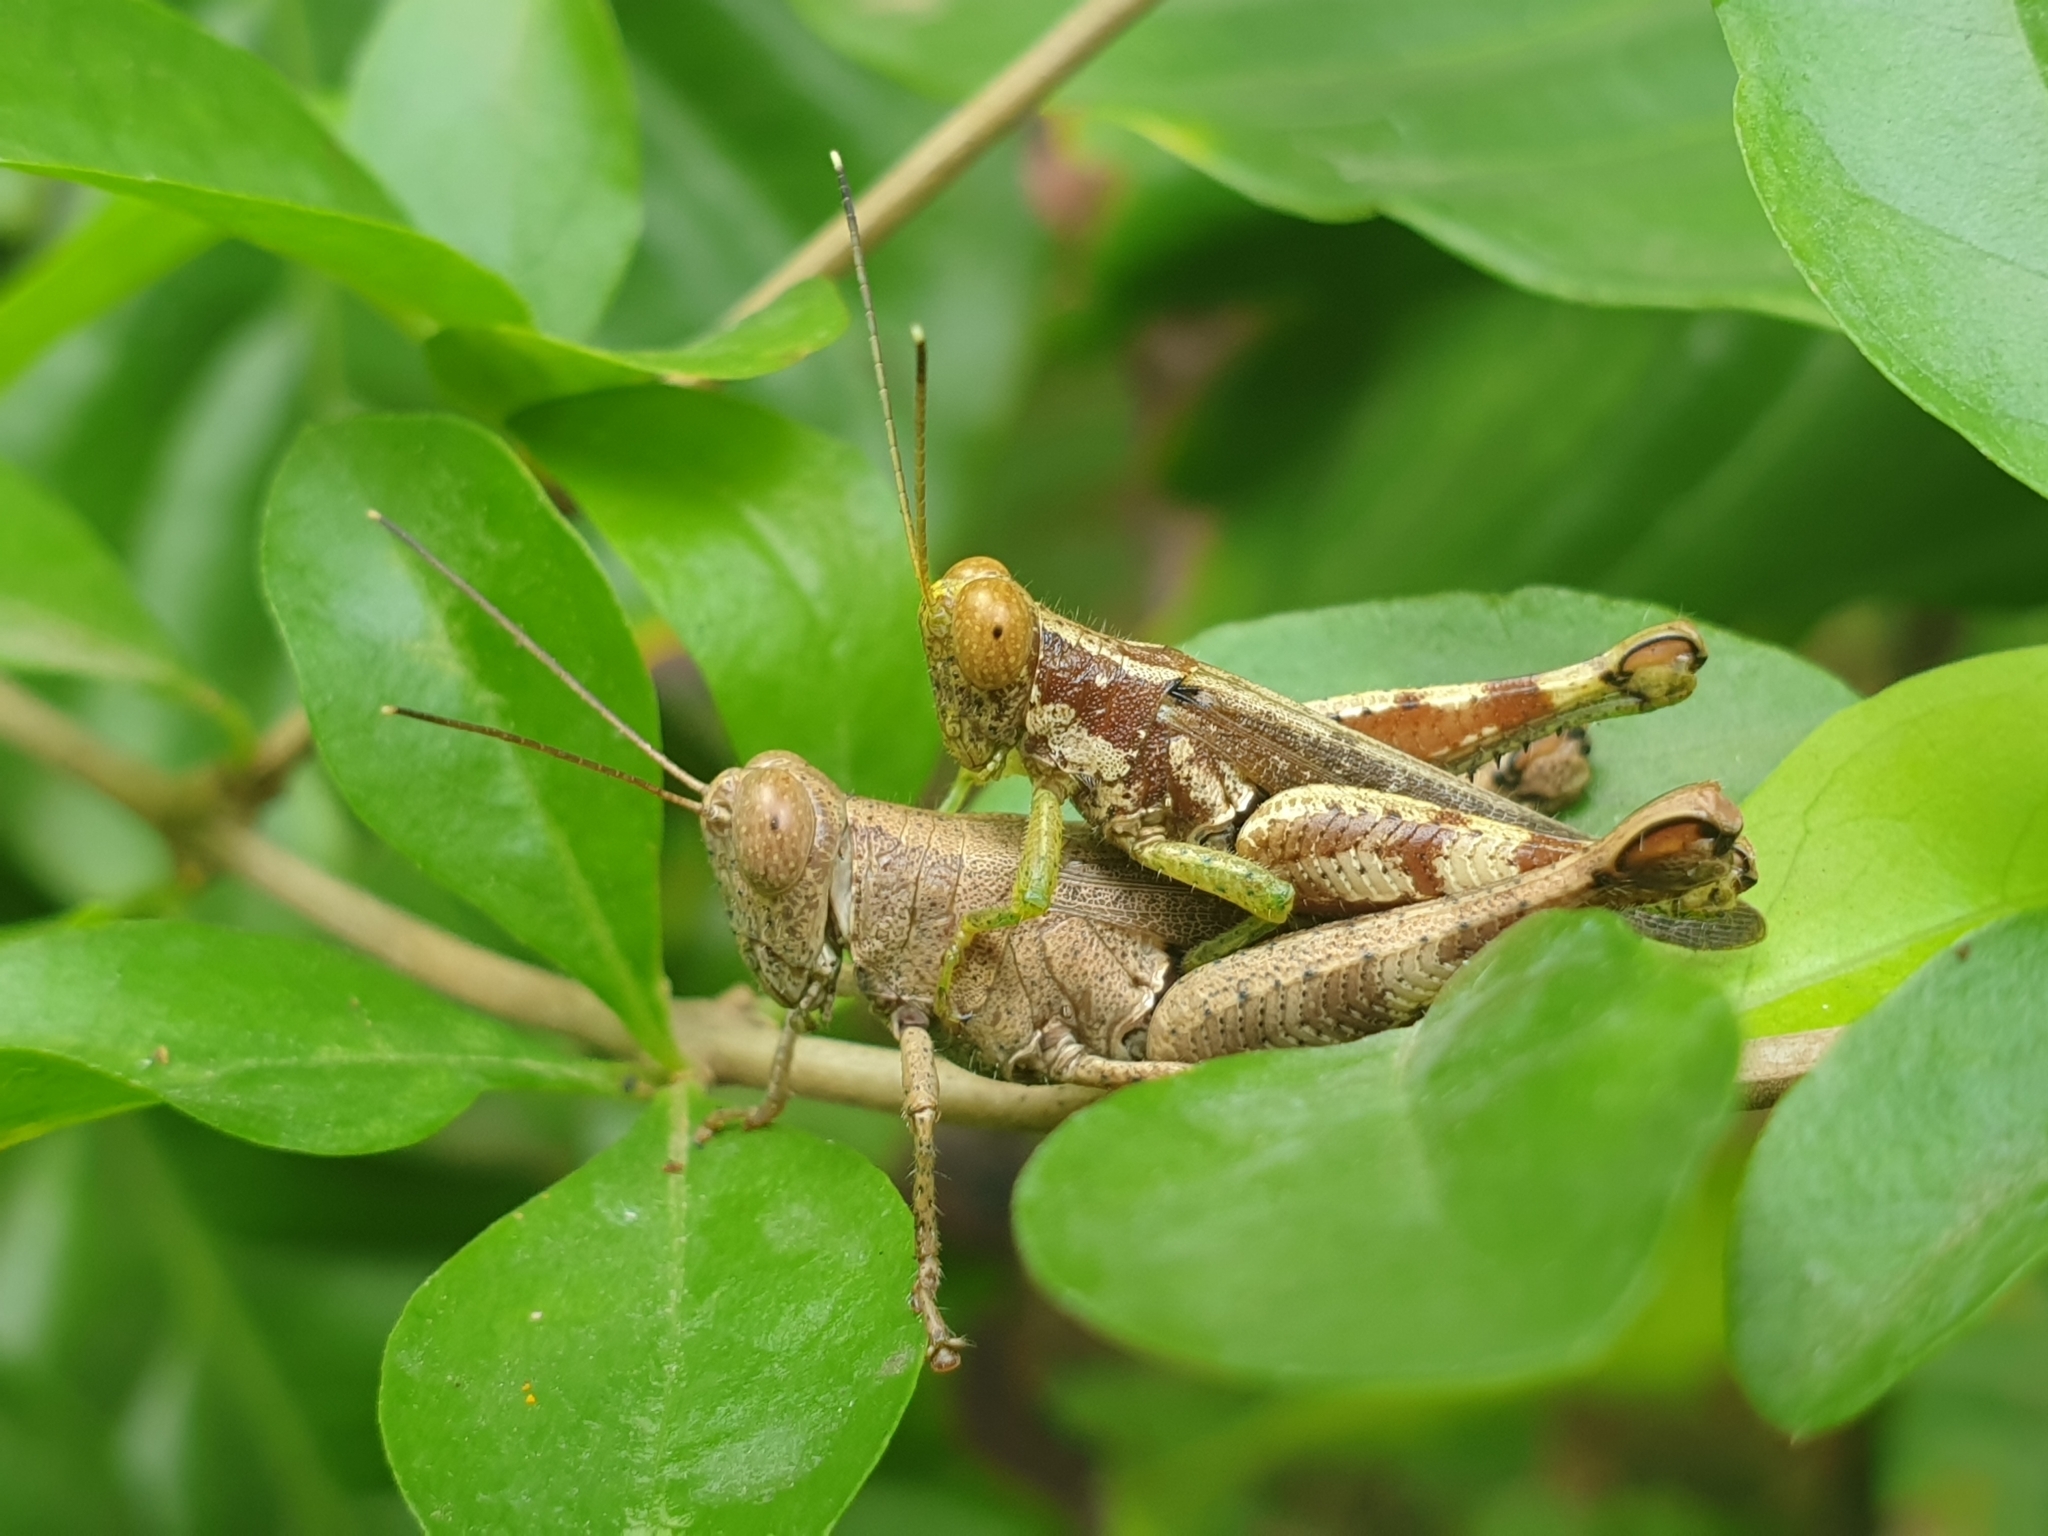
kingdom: Animalia
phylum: Arthropoda
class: Insecta
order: Orthoptera
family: Acrididae
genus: Pirithoicus
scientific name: Pirithoicus ophthalmicus
